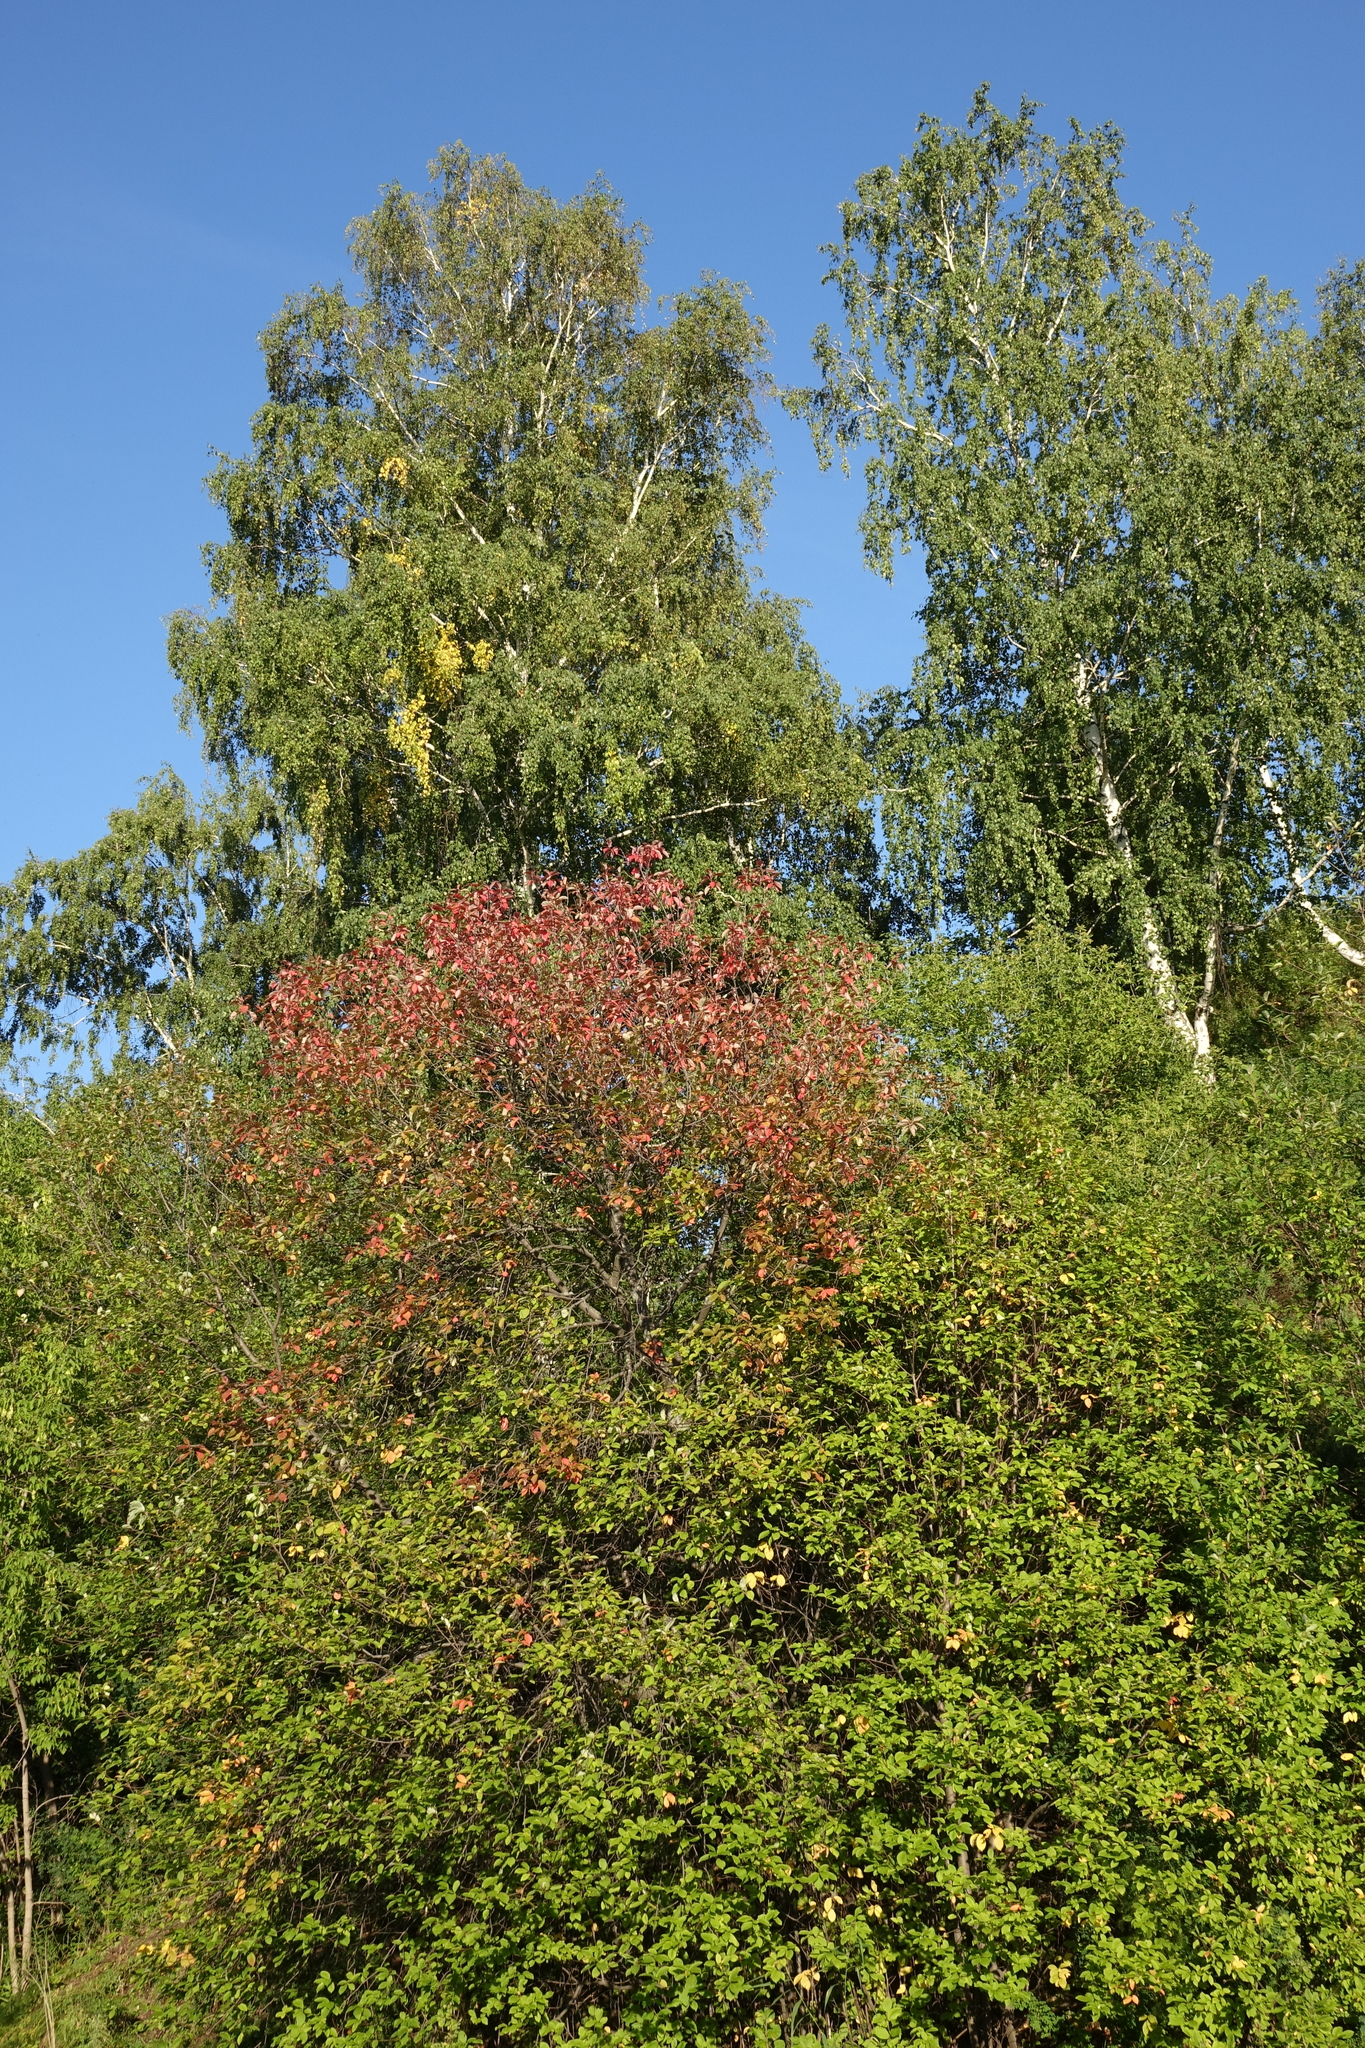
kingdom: Plantae
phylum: Tracheophyta
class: Magnoliopsida
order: Rosales
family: Rosaceae
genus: Prunus
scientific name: Prunus padus
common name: Bird cherry
